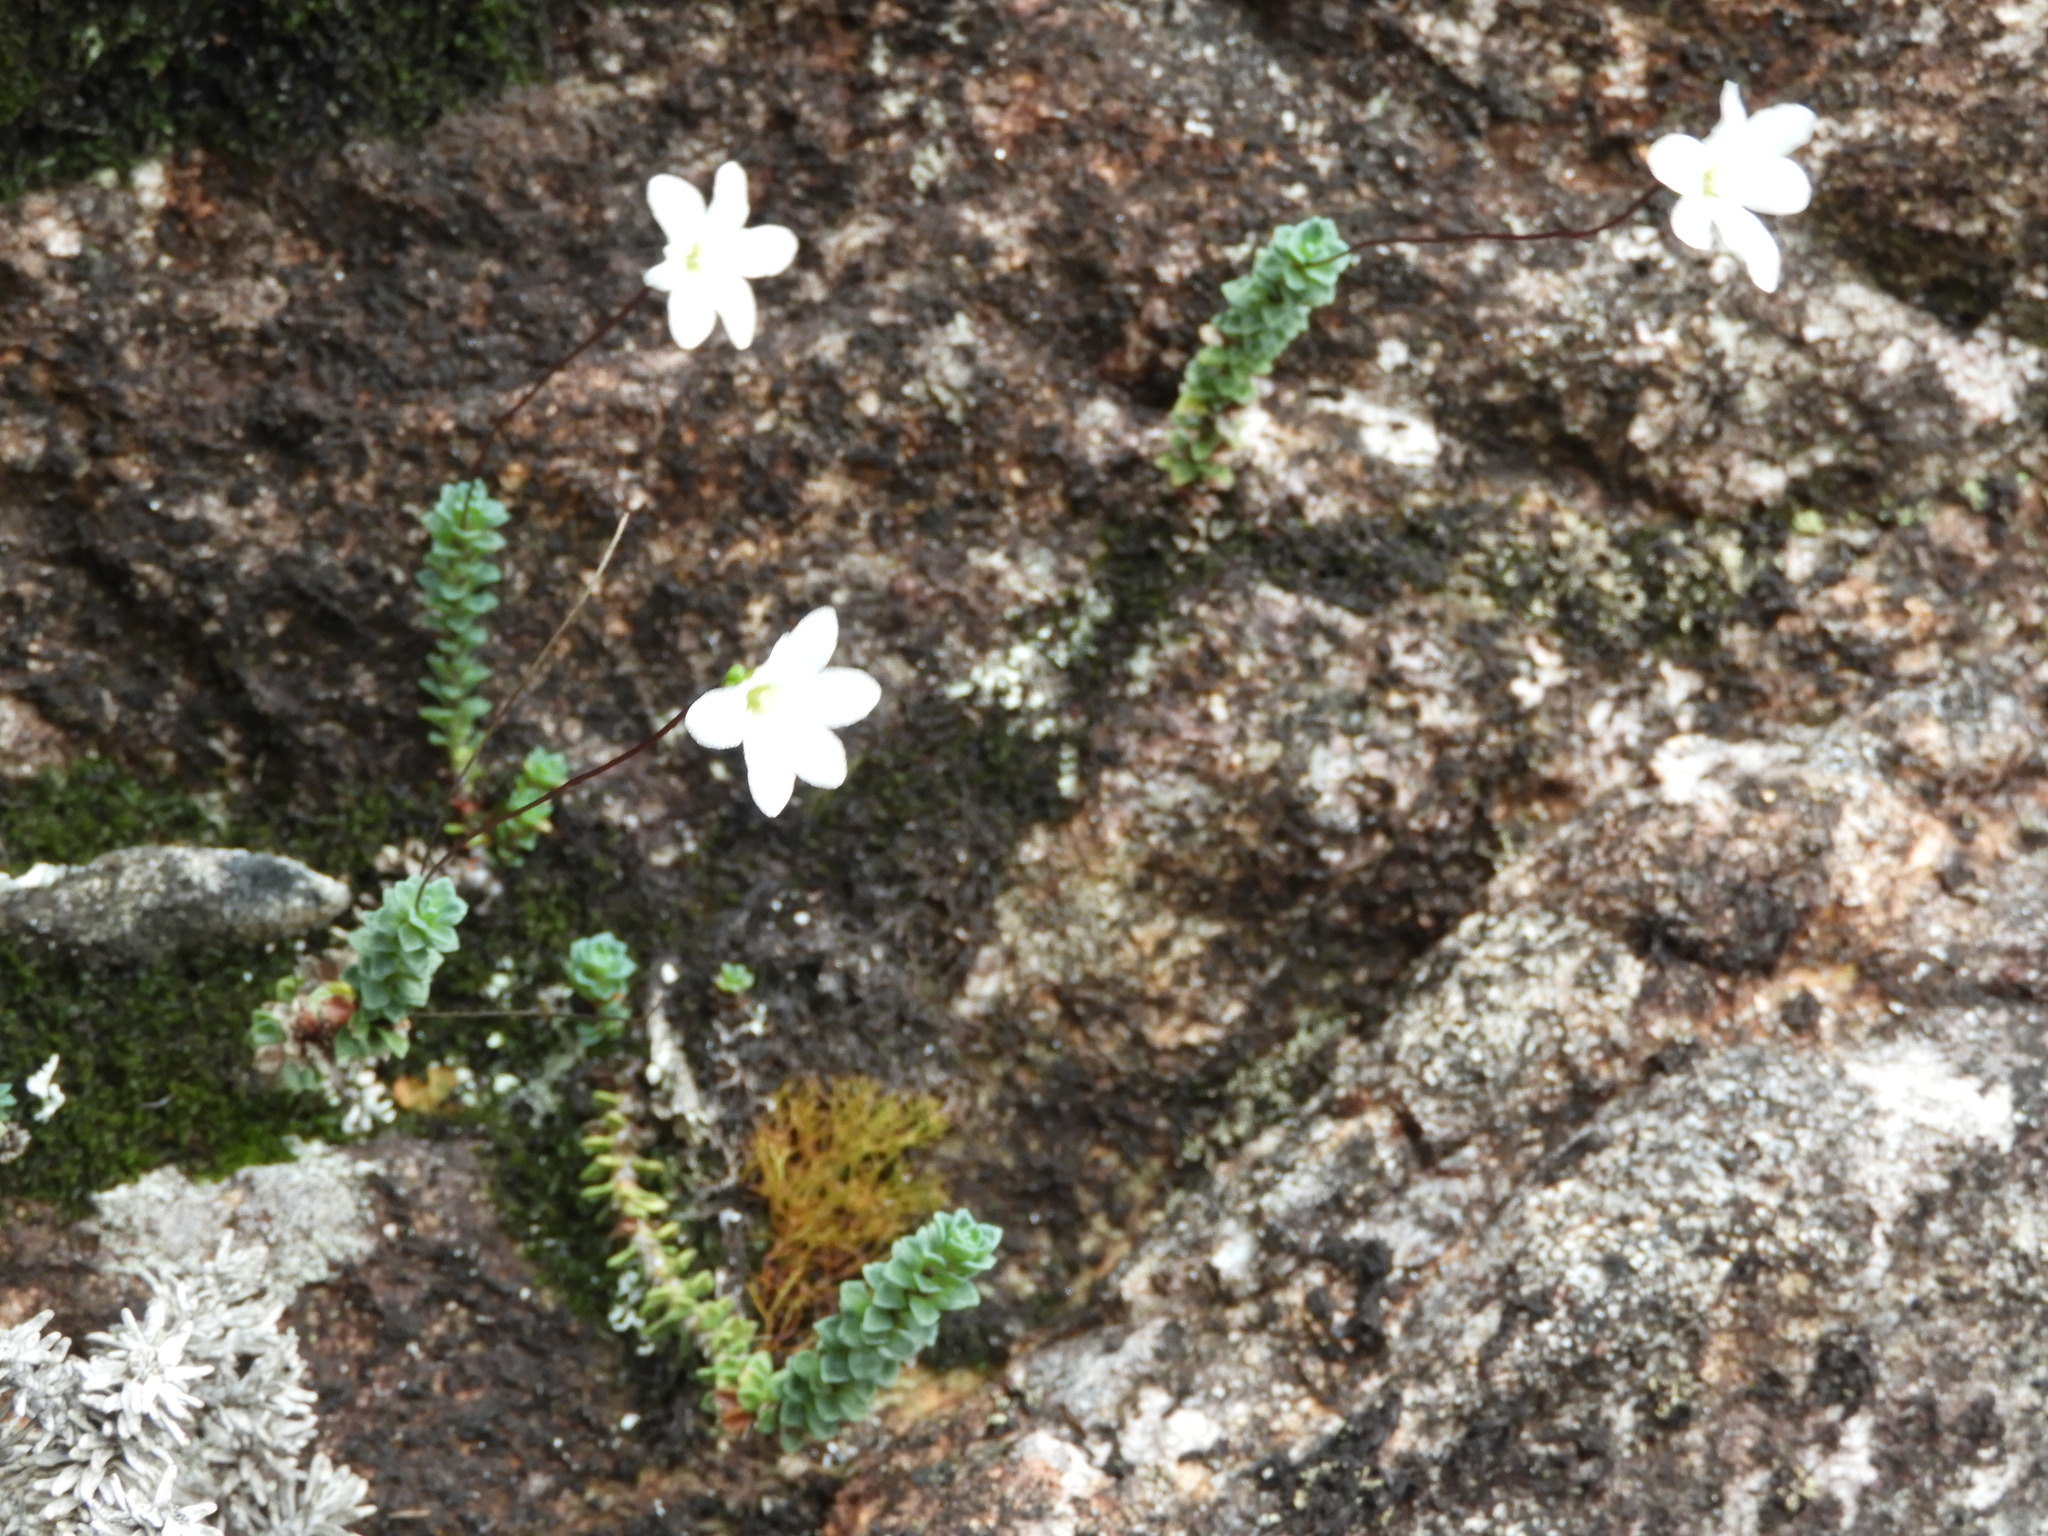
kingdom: Plantae
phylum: Tracheophyta
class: Magnoliopsida
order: Asterales
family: Stylidiaceae
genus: Forstera
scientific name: Forstera sedifolia
